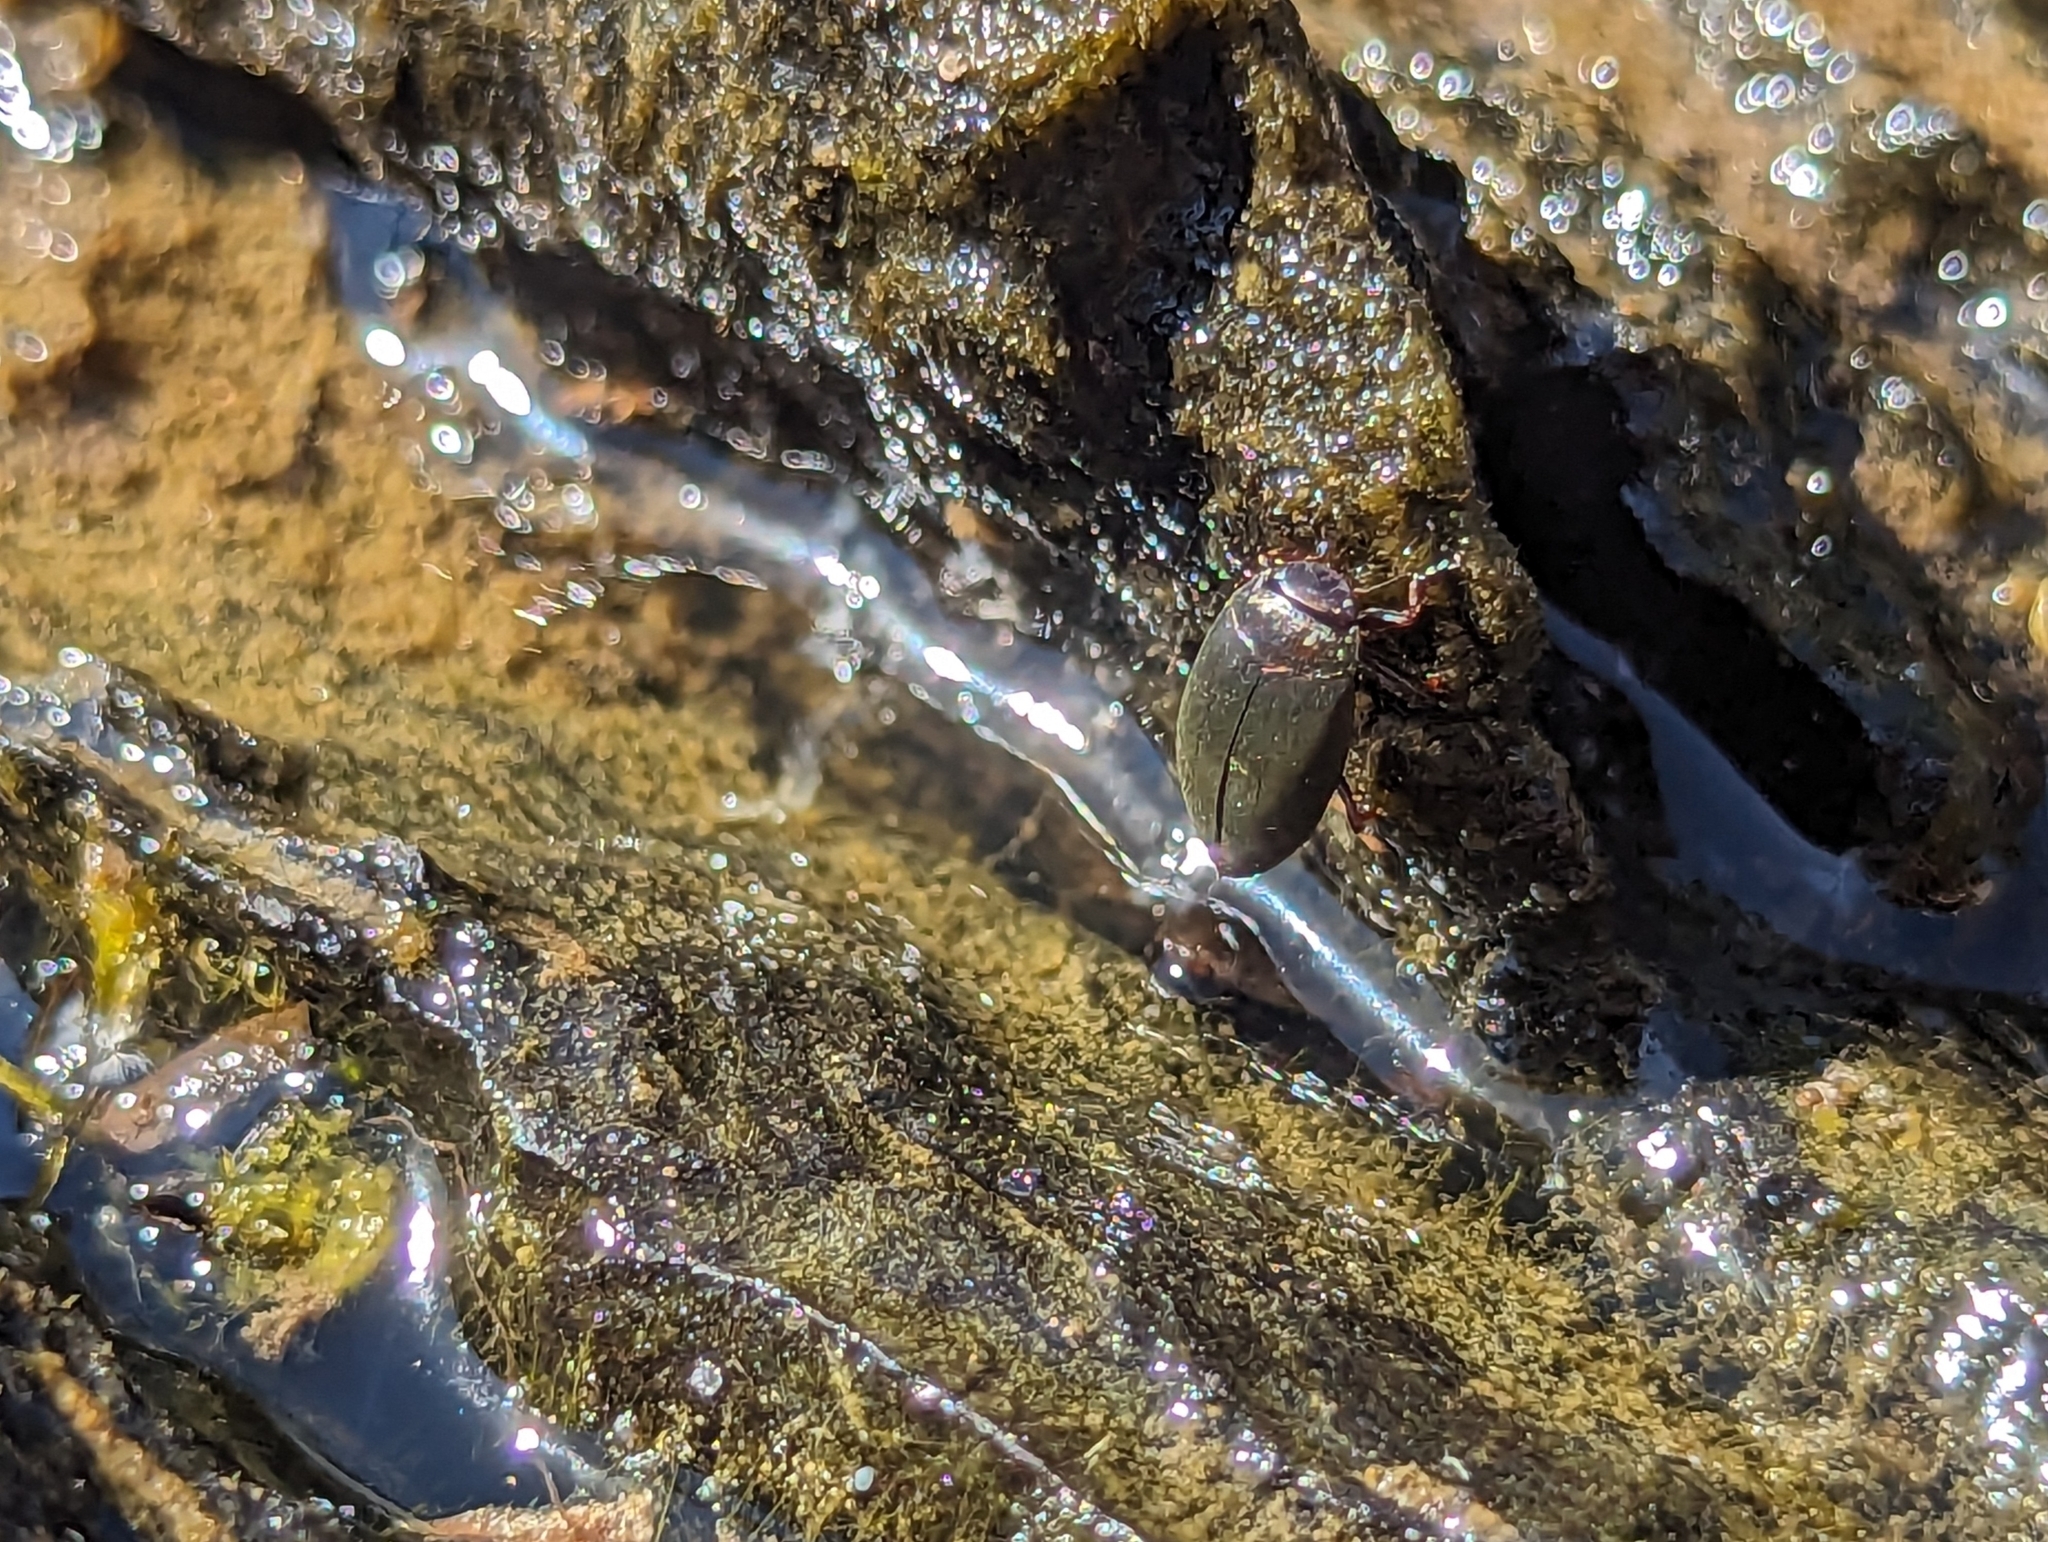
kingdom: Animalia
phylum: Arthropoda
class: Insecta
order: Coleoptera
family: Dytiscidae
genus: Hydroporus
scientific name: Hydroporus
